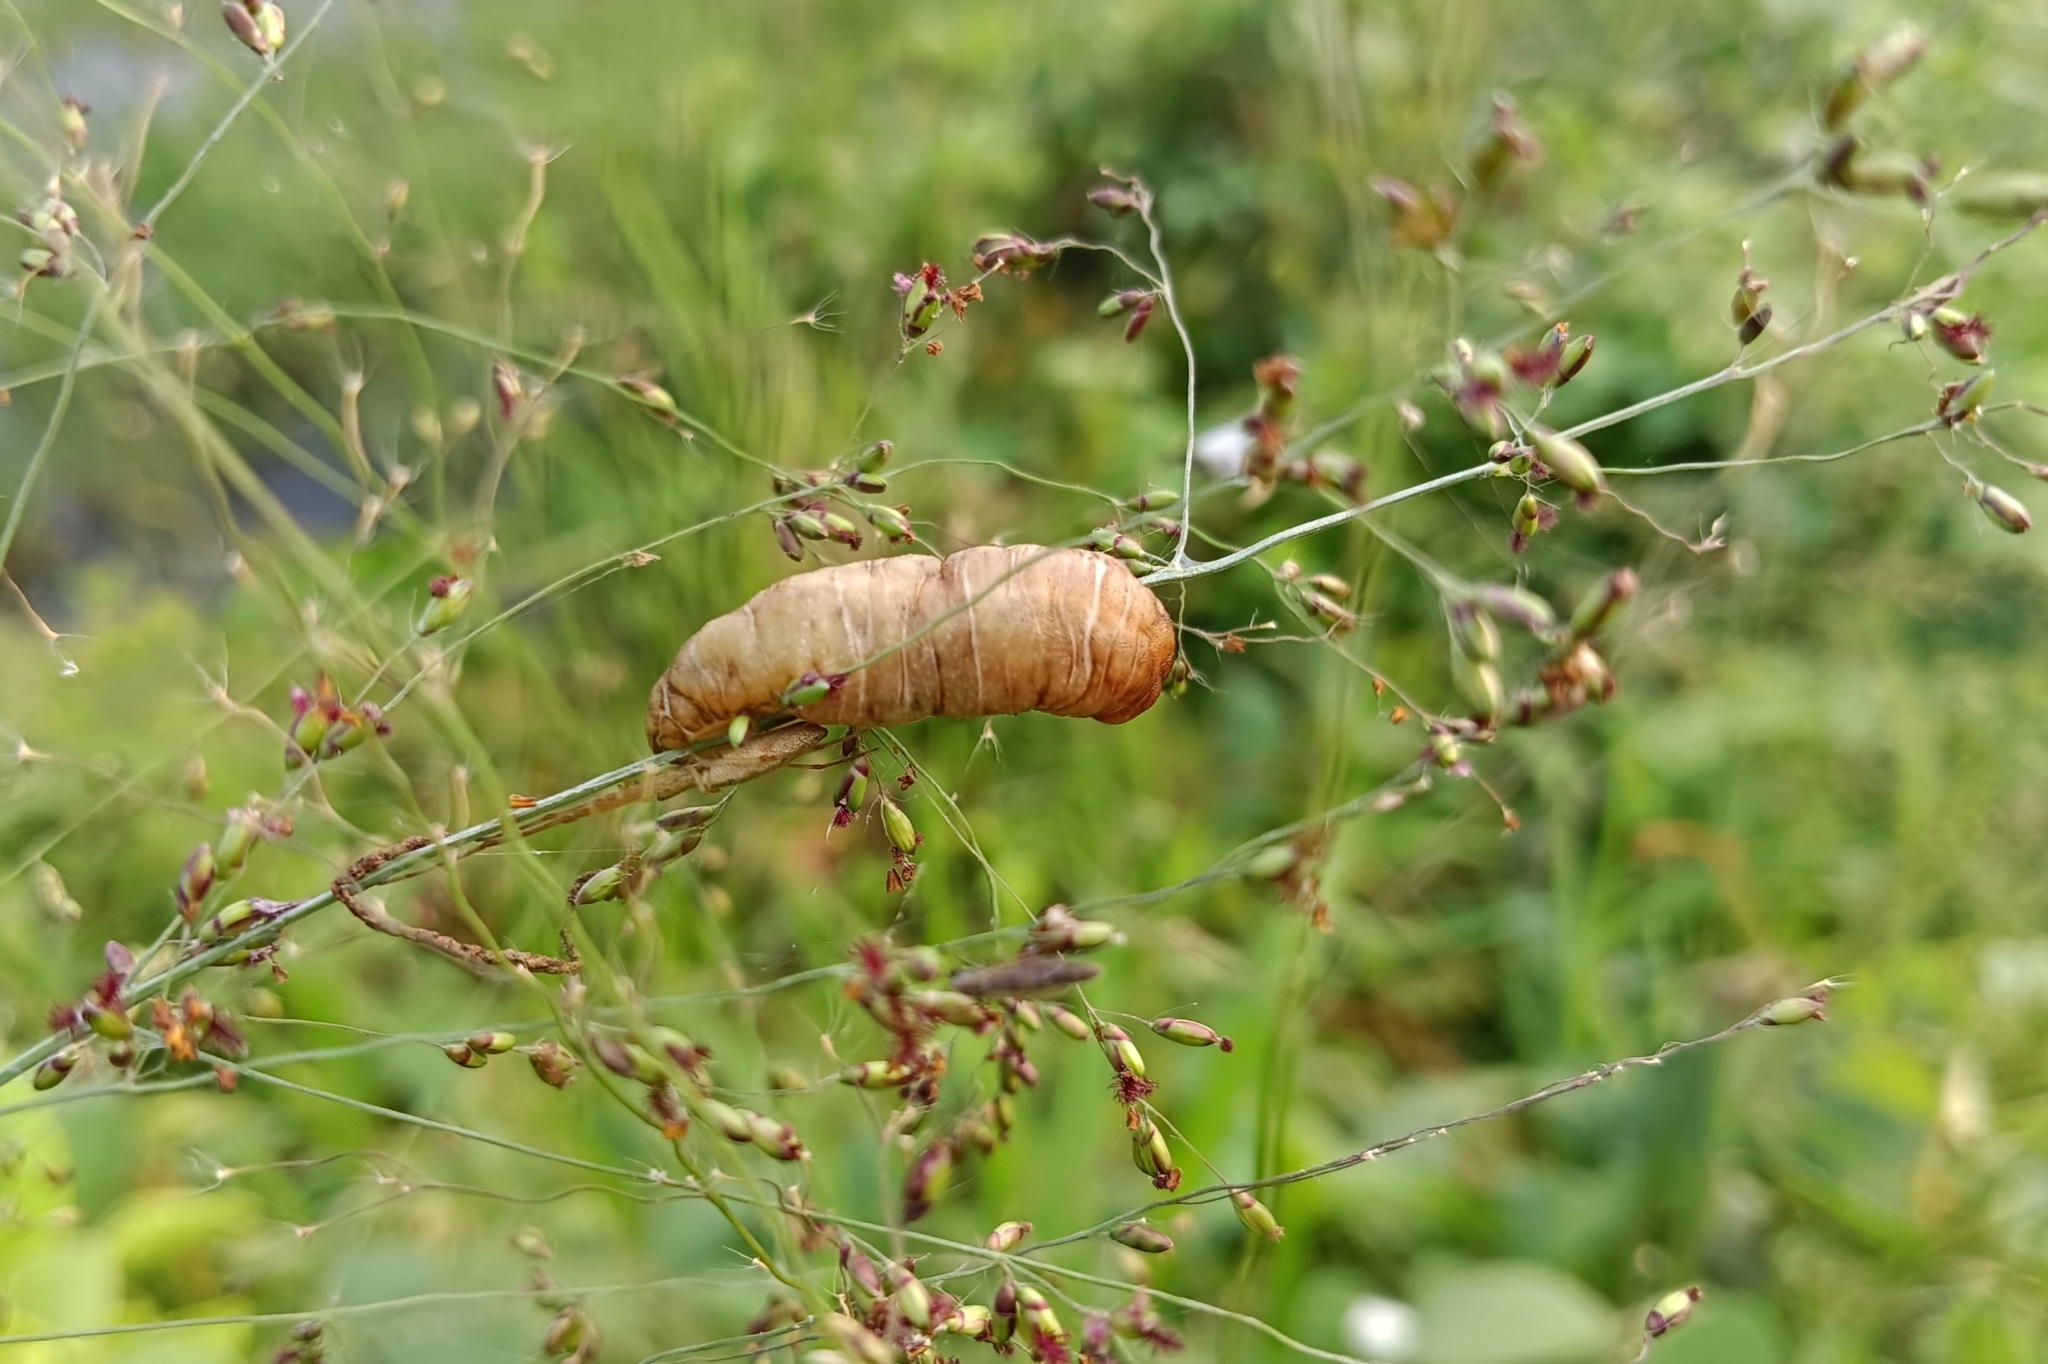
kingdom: Animalia
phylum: Mollusca
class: Gastropoda
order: Systellommatophora
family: Veronicellidae
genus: Laevicaulis
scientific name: Laevicaulis haroldi
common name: Caterpillar slug
